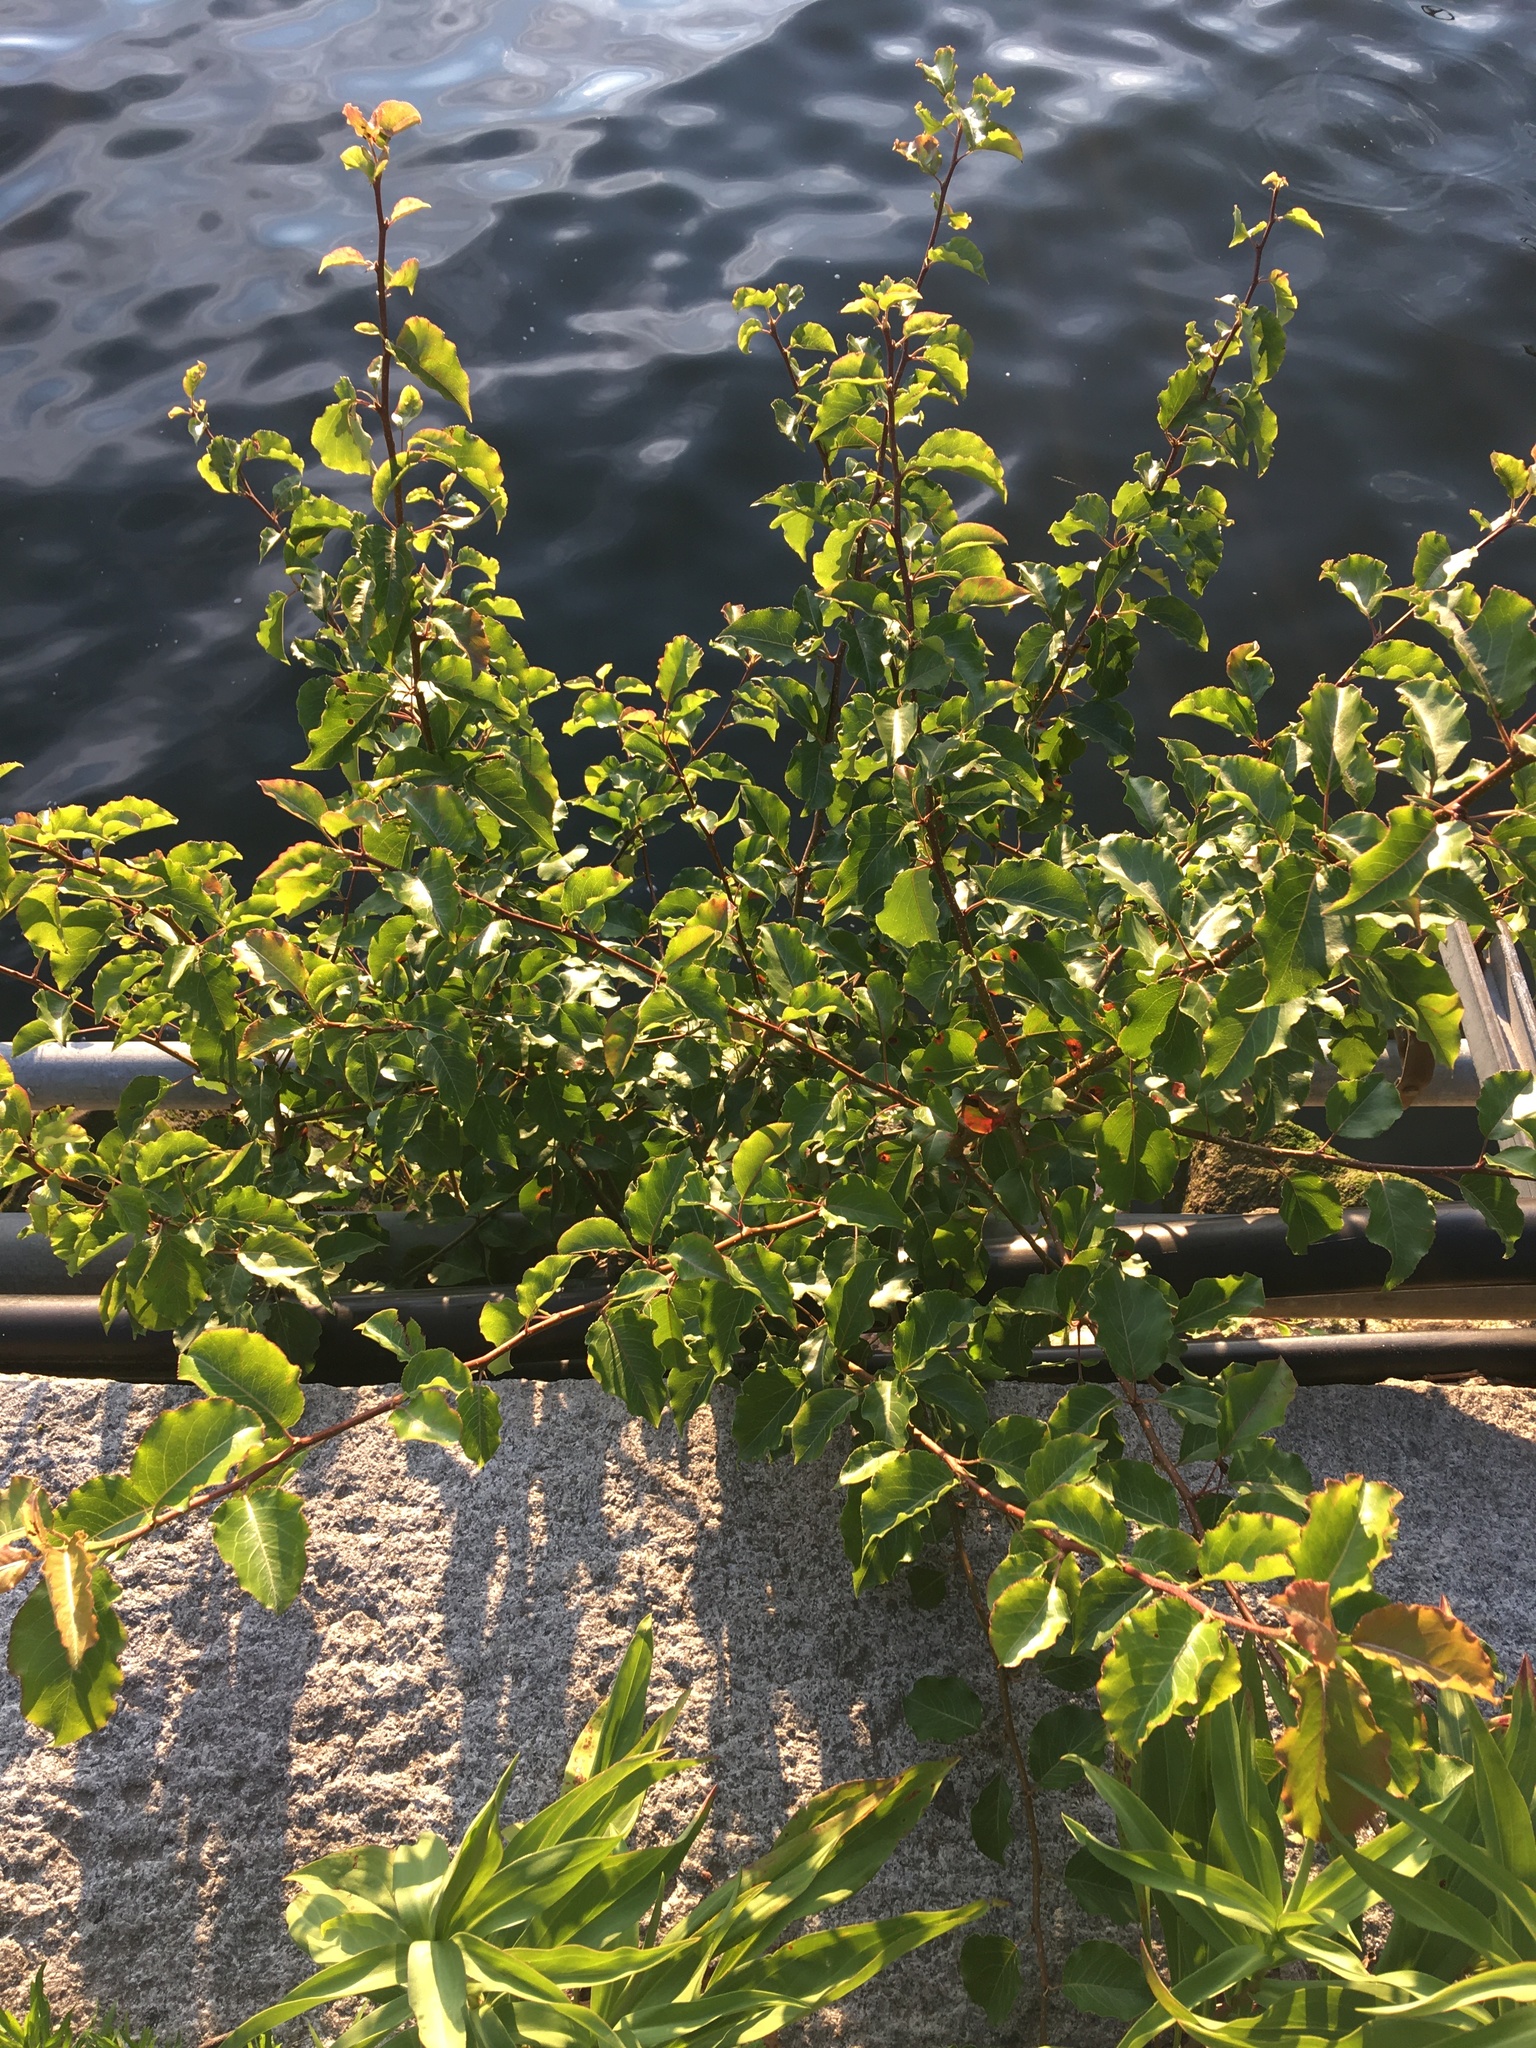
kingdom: Plantae
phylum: Tracheophyta
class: Magnoliopsida
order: Rosales
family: Rosaceae
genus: Pyrus
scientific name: Pyrus calleryana
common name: Callery pear
